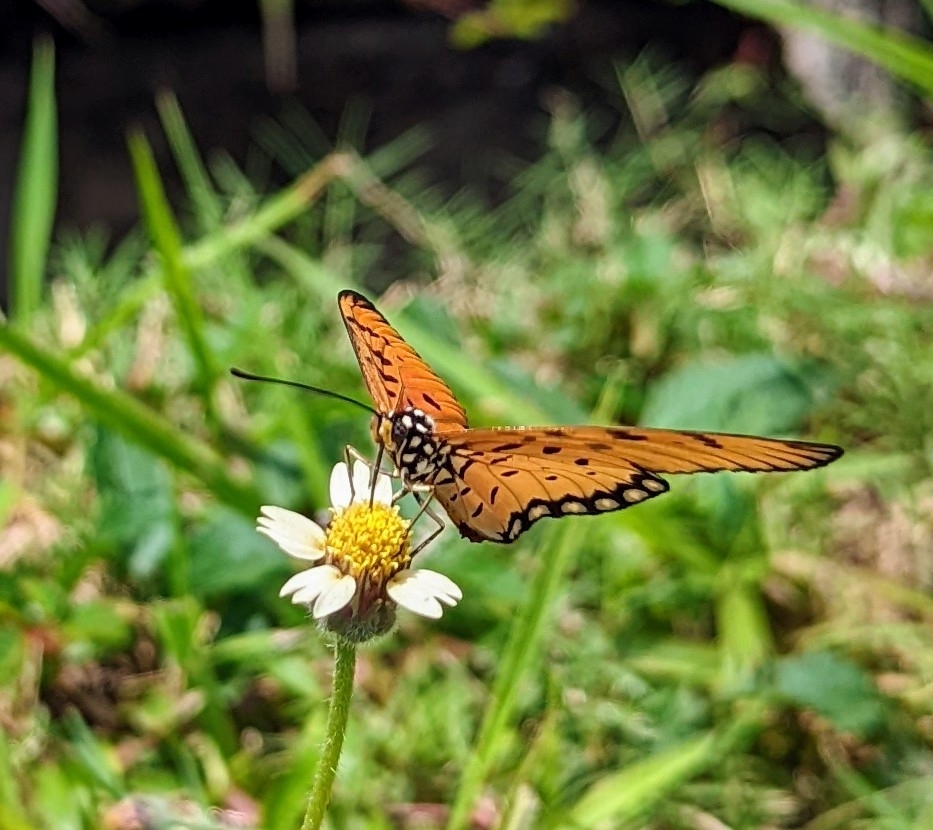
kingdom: Animalia
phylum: Arthropoda
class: Insecta
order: Lepidoptera
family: Nymphalidae
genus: Acraea
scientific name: Acraea terpsicore
